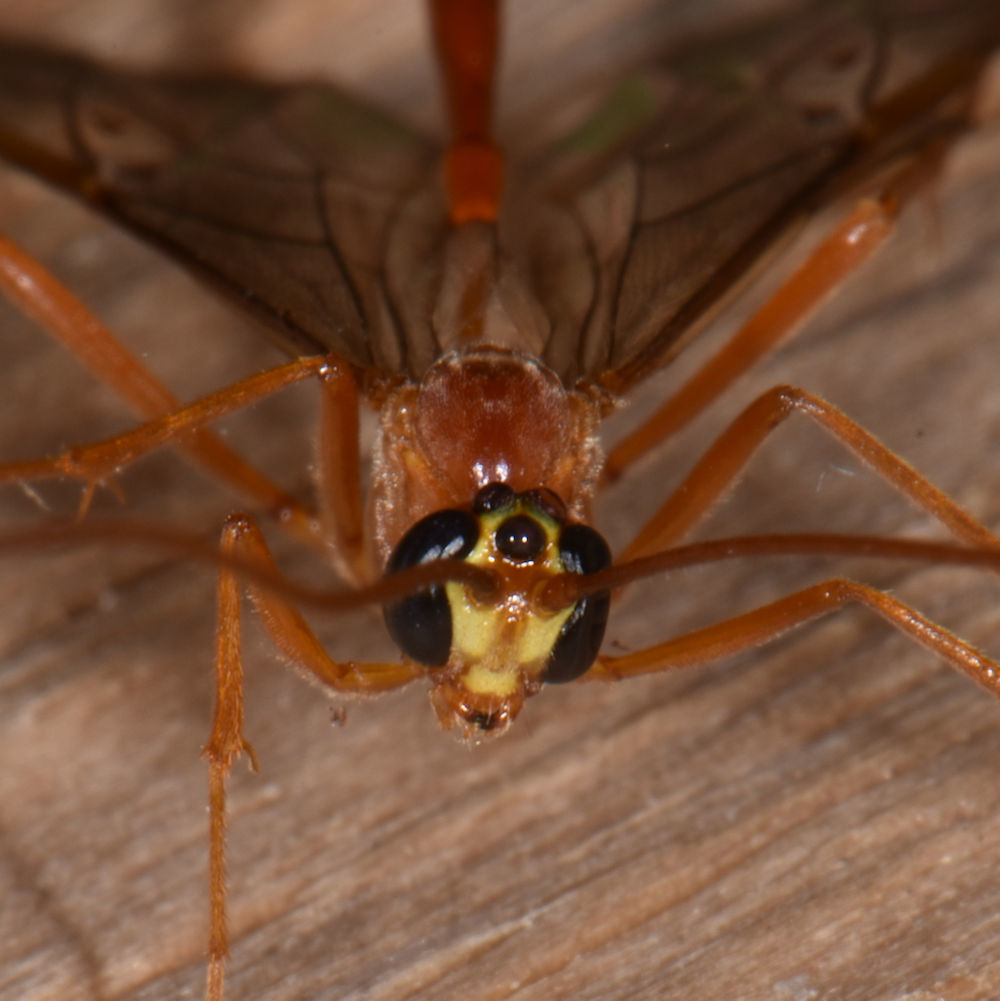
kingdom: Animalia
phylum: Arthropoda
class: Insecta
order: Hymenoptera
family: Ichneumonidae
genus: Enicospilus
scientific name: Enicospilus purgatus
